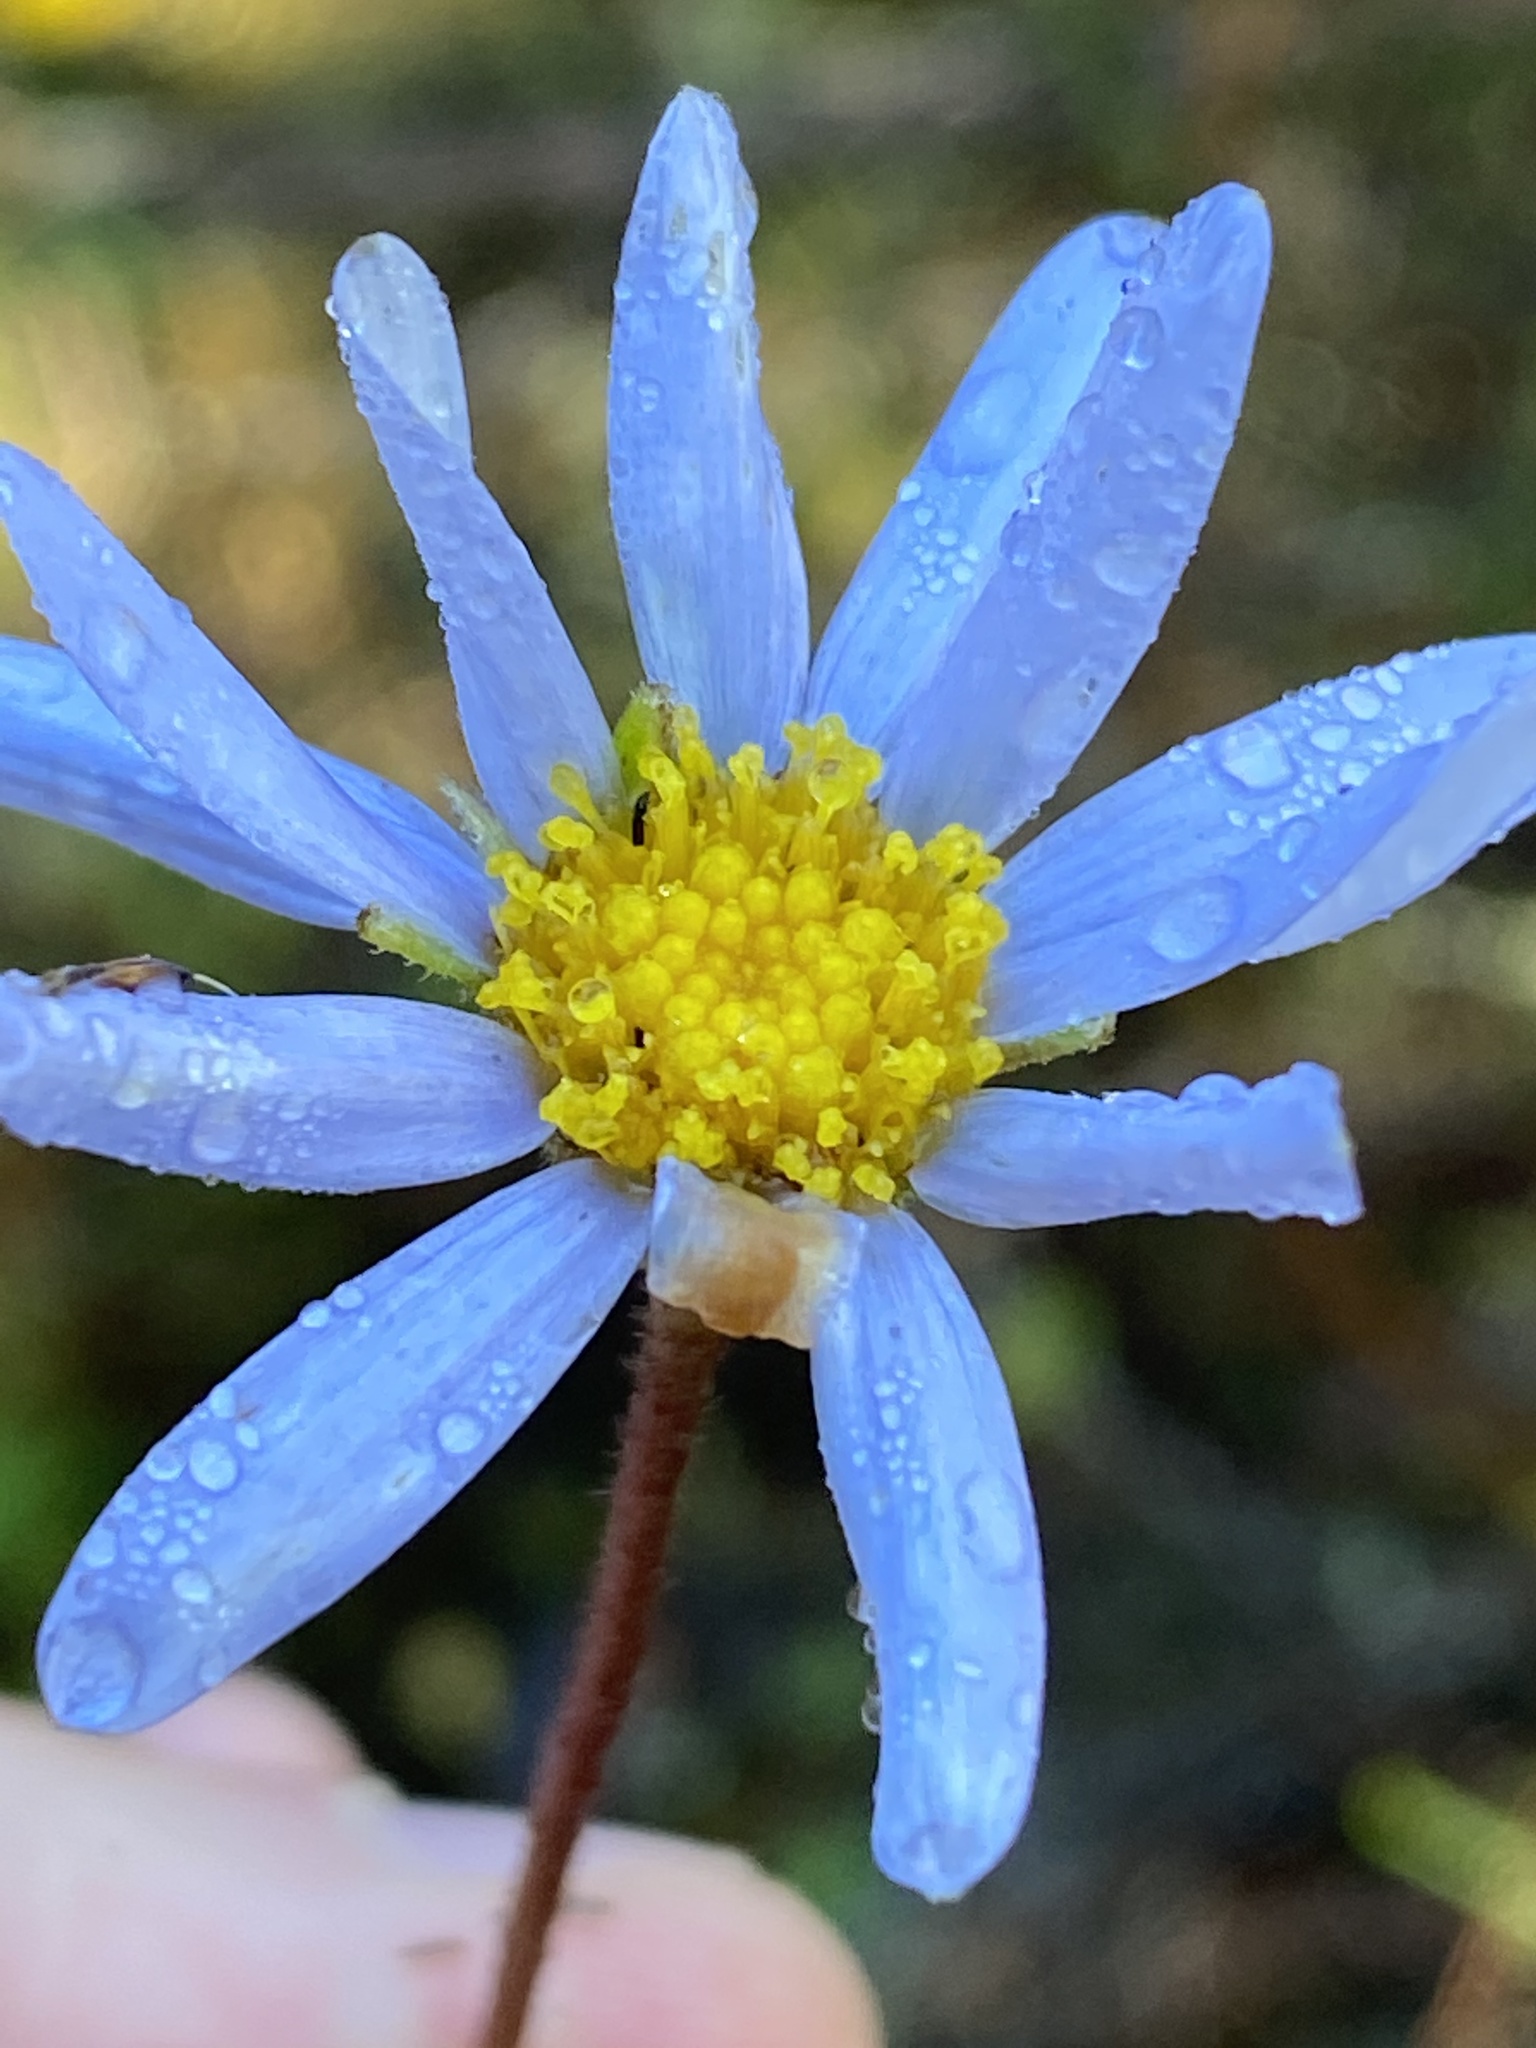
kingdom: Plantae
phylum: Tracheophyta
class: Magnoliopsida
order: Asterales
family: Asteraceae
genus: Felicia
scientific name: Felicia amelloides
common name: Blue marguerite
